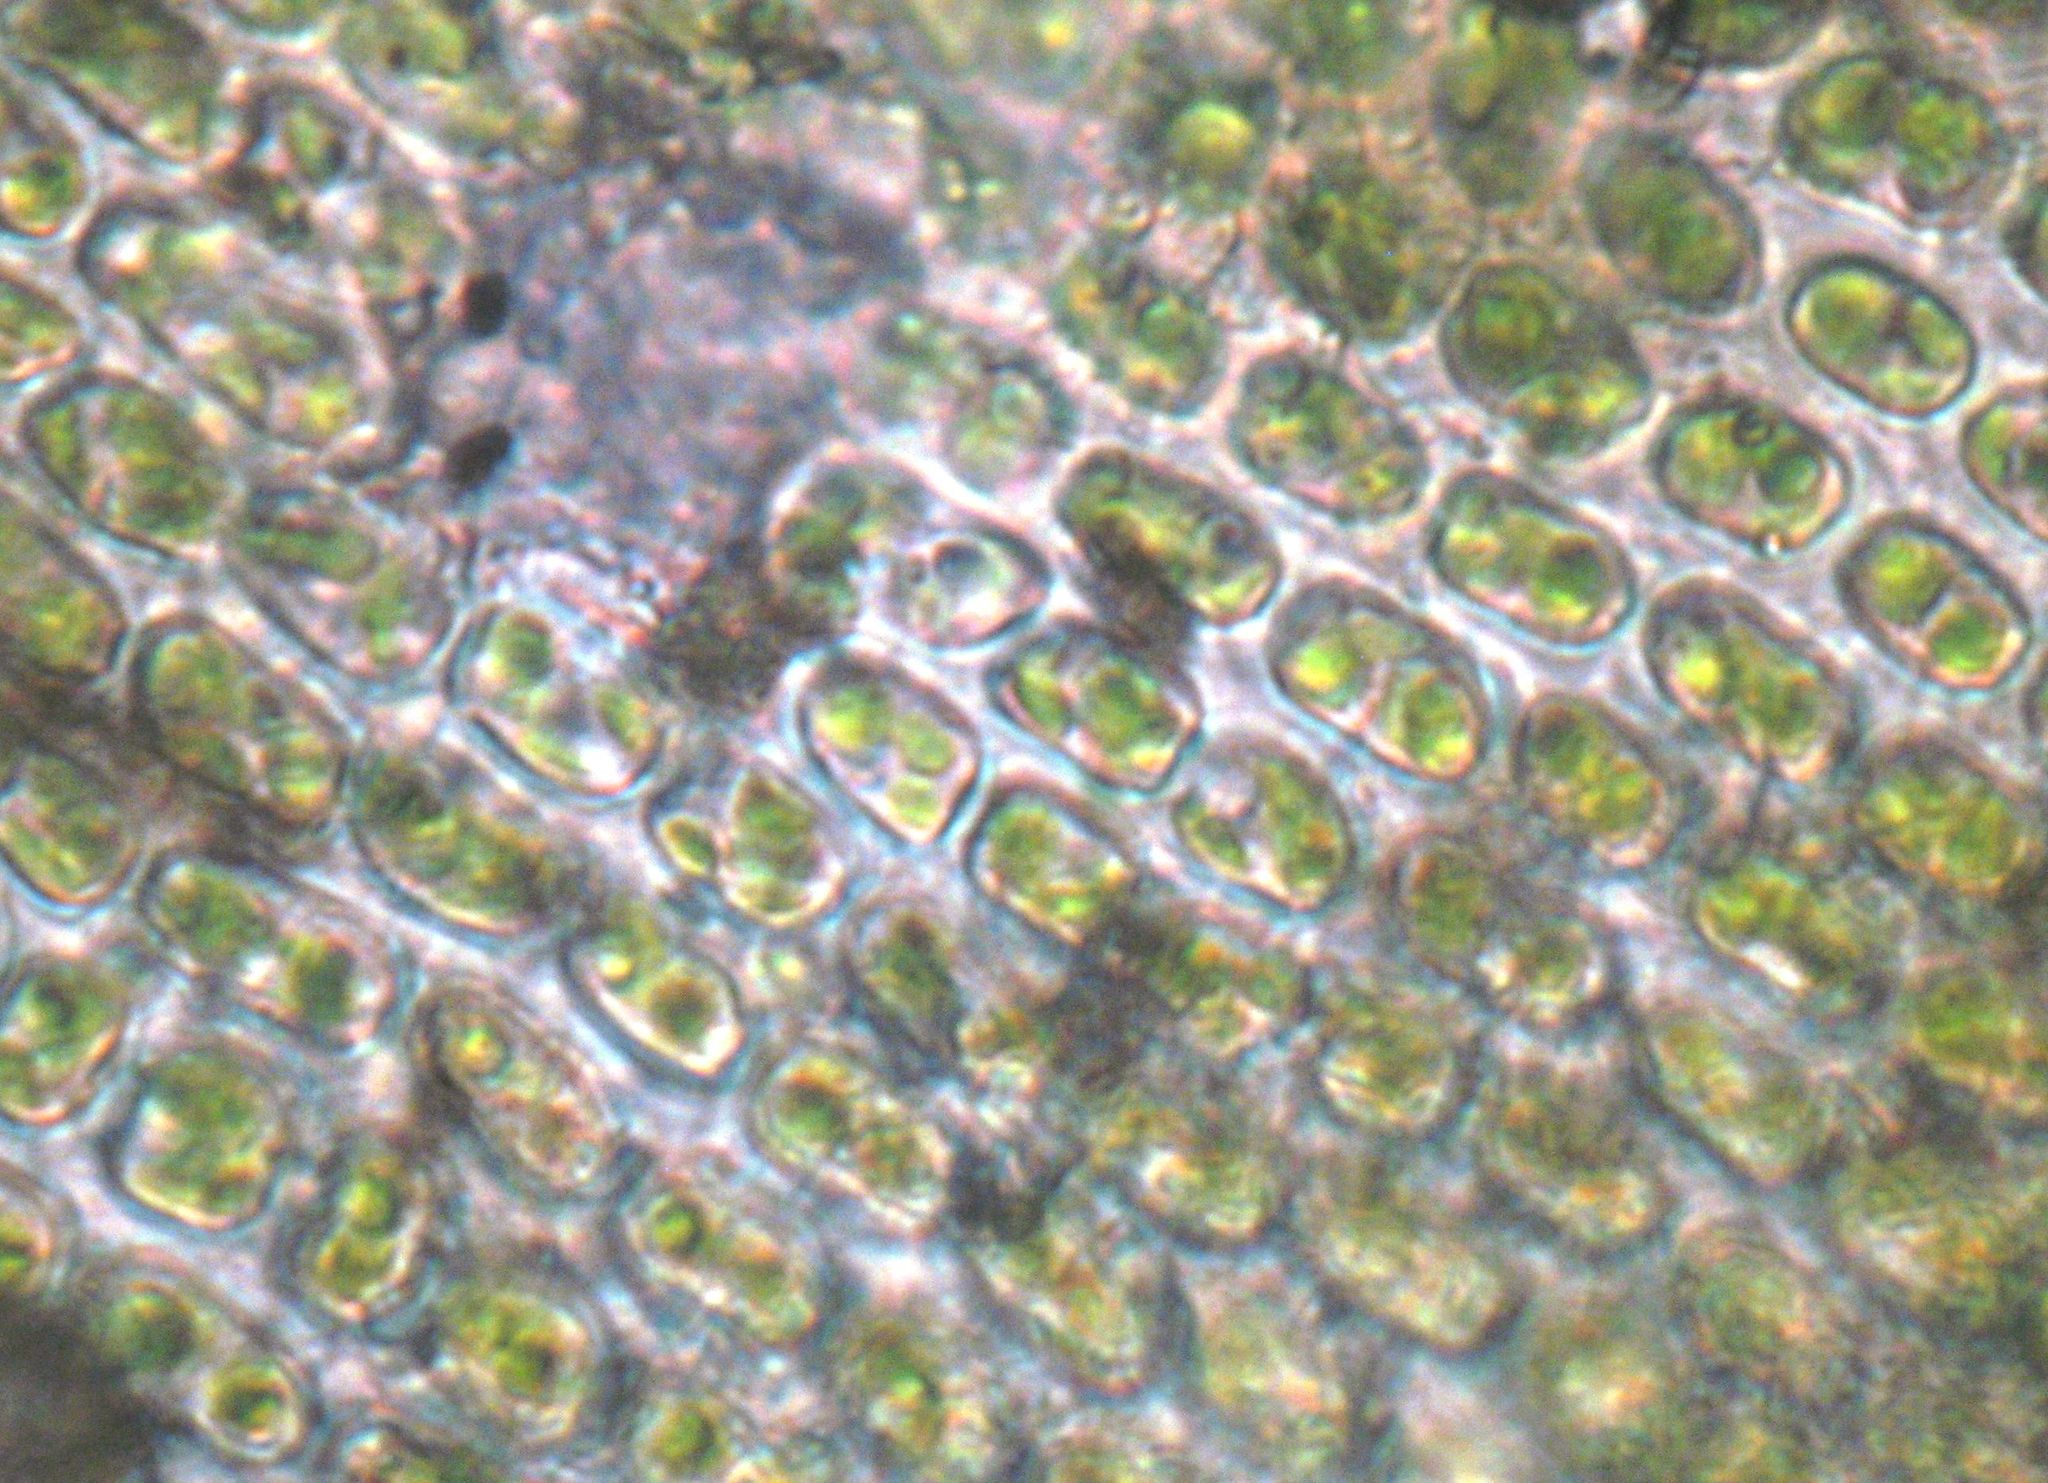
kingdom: Plantae
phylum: Bryophyta
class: Bryopsida
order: Orthotrichales
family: Orthotrichaceae
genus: Lewinskya
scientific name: Lewinskya tasmanica
